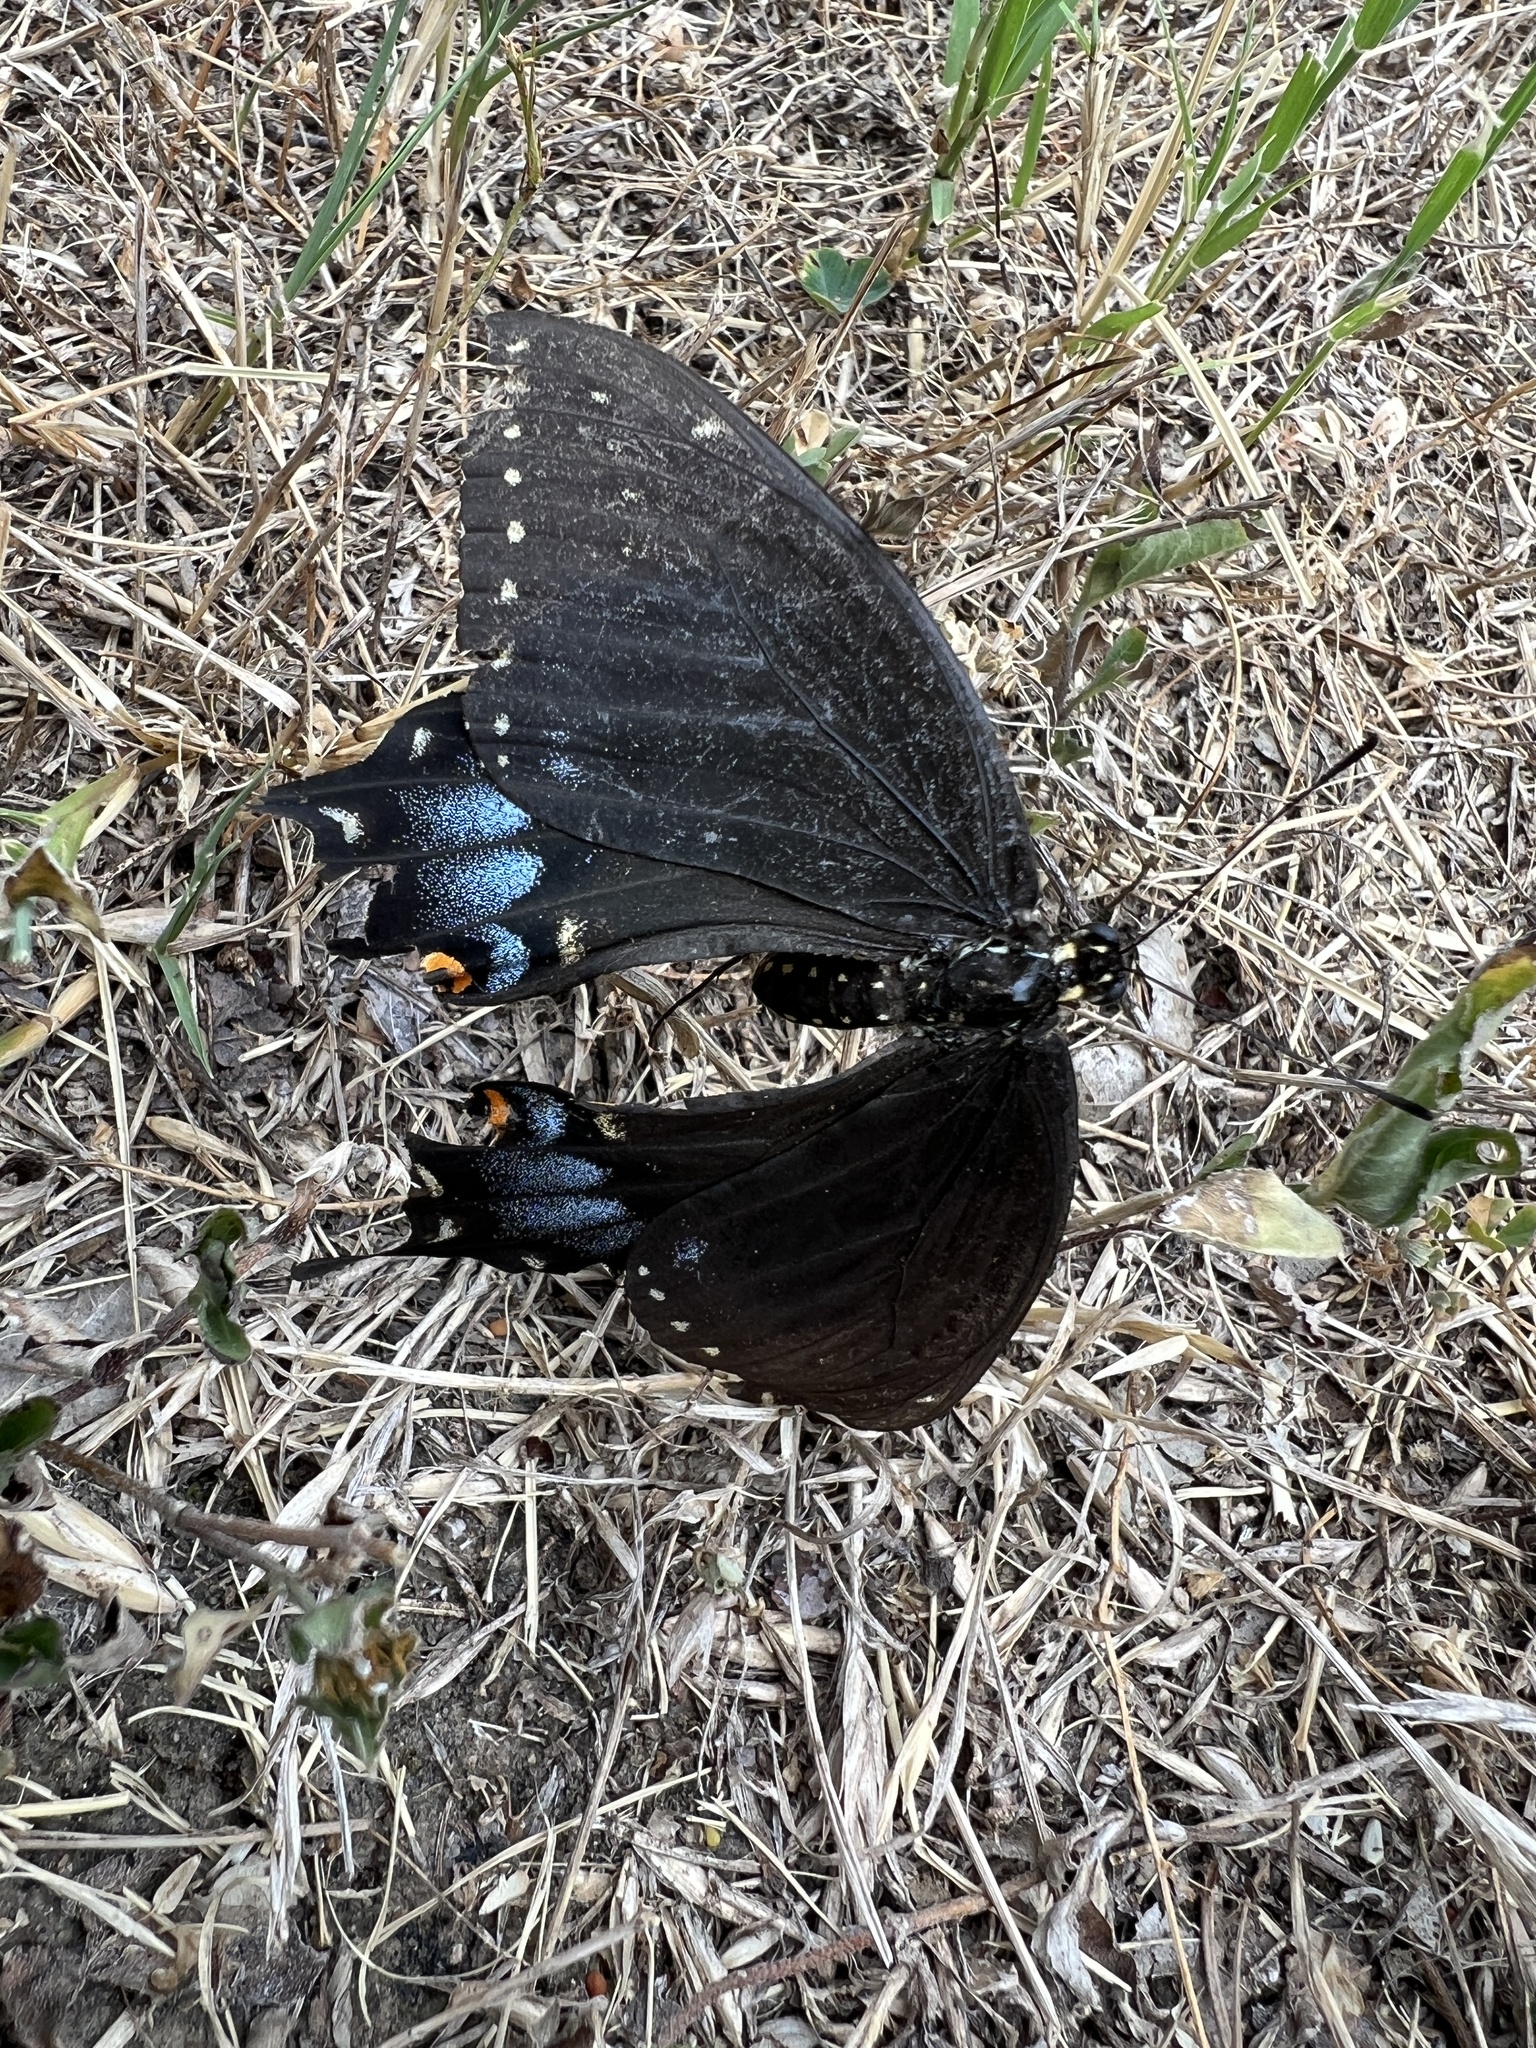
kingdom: Animalia
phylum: Arthropoda
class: Insecta
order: Lepidoptera
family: Papilionidae
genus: Papilio
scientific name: Papilio polyxenes
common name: Black swallowtail
